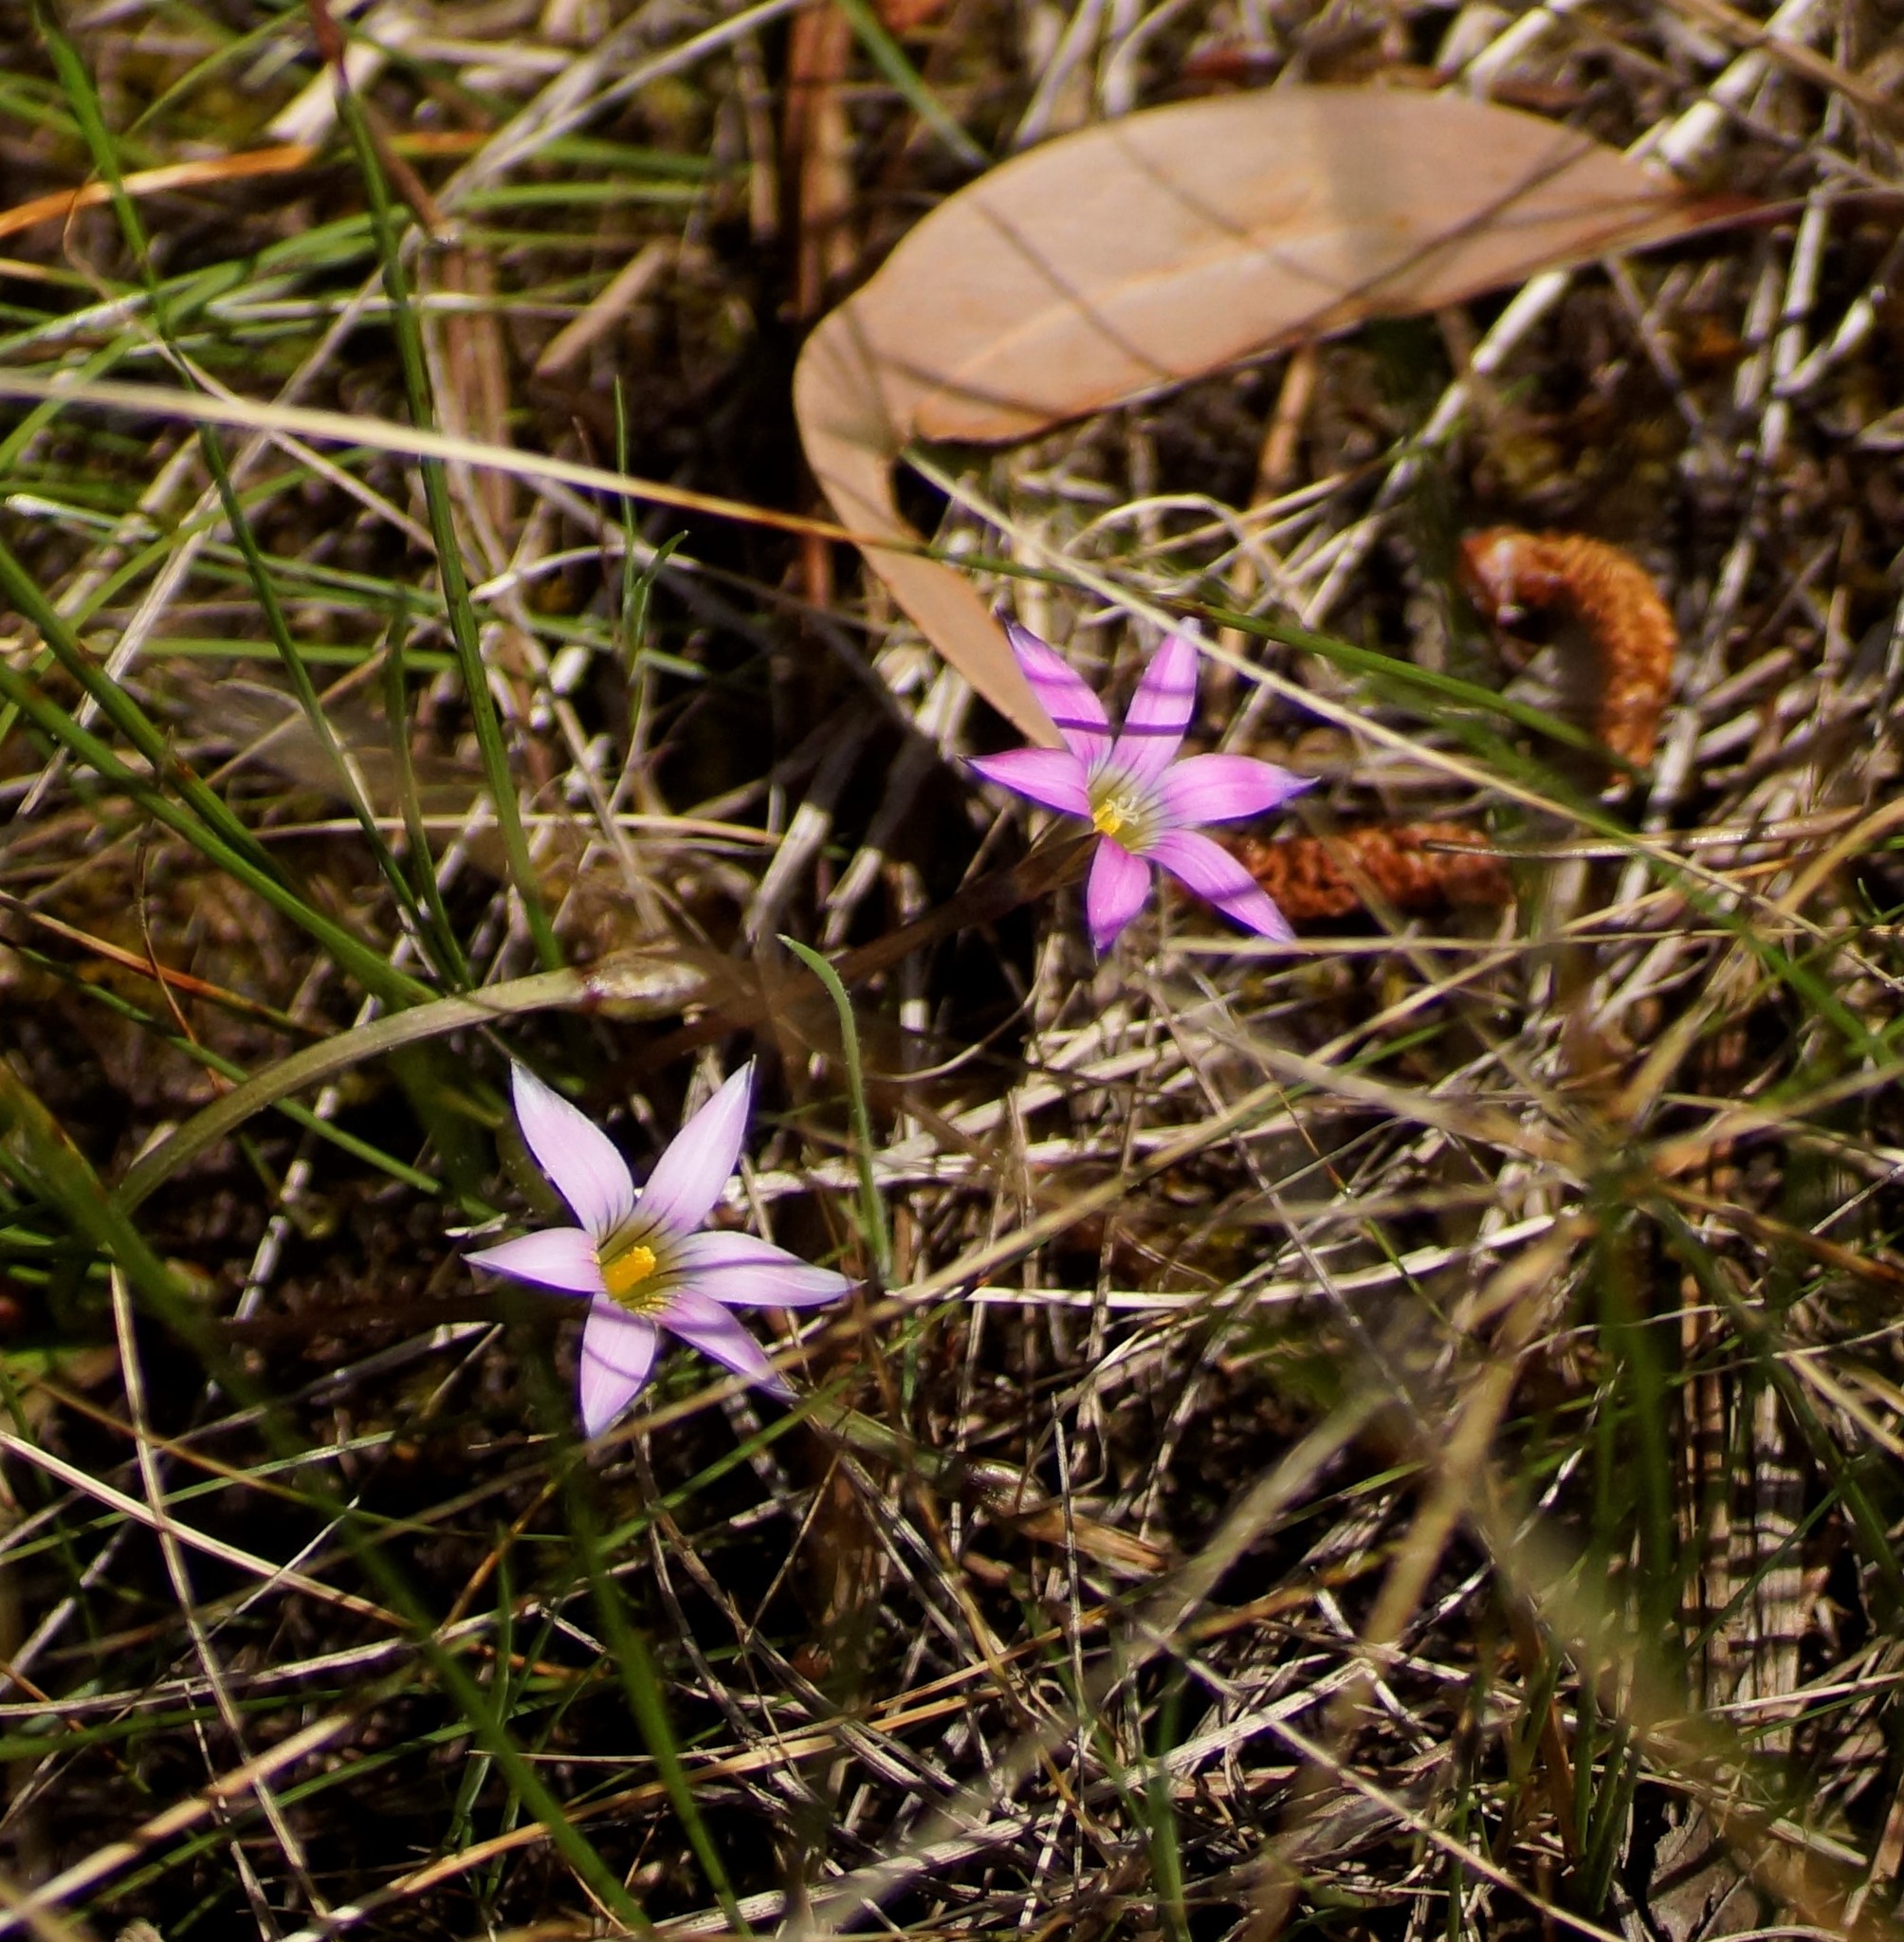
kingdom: Plantae
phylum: Tracheophyta
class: Liliopsida
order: Asparagales
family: Iridaceae
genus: Romulea
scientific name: Romulea rosea
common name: Oniongrass
